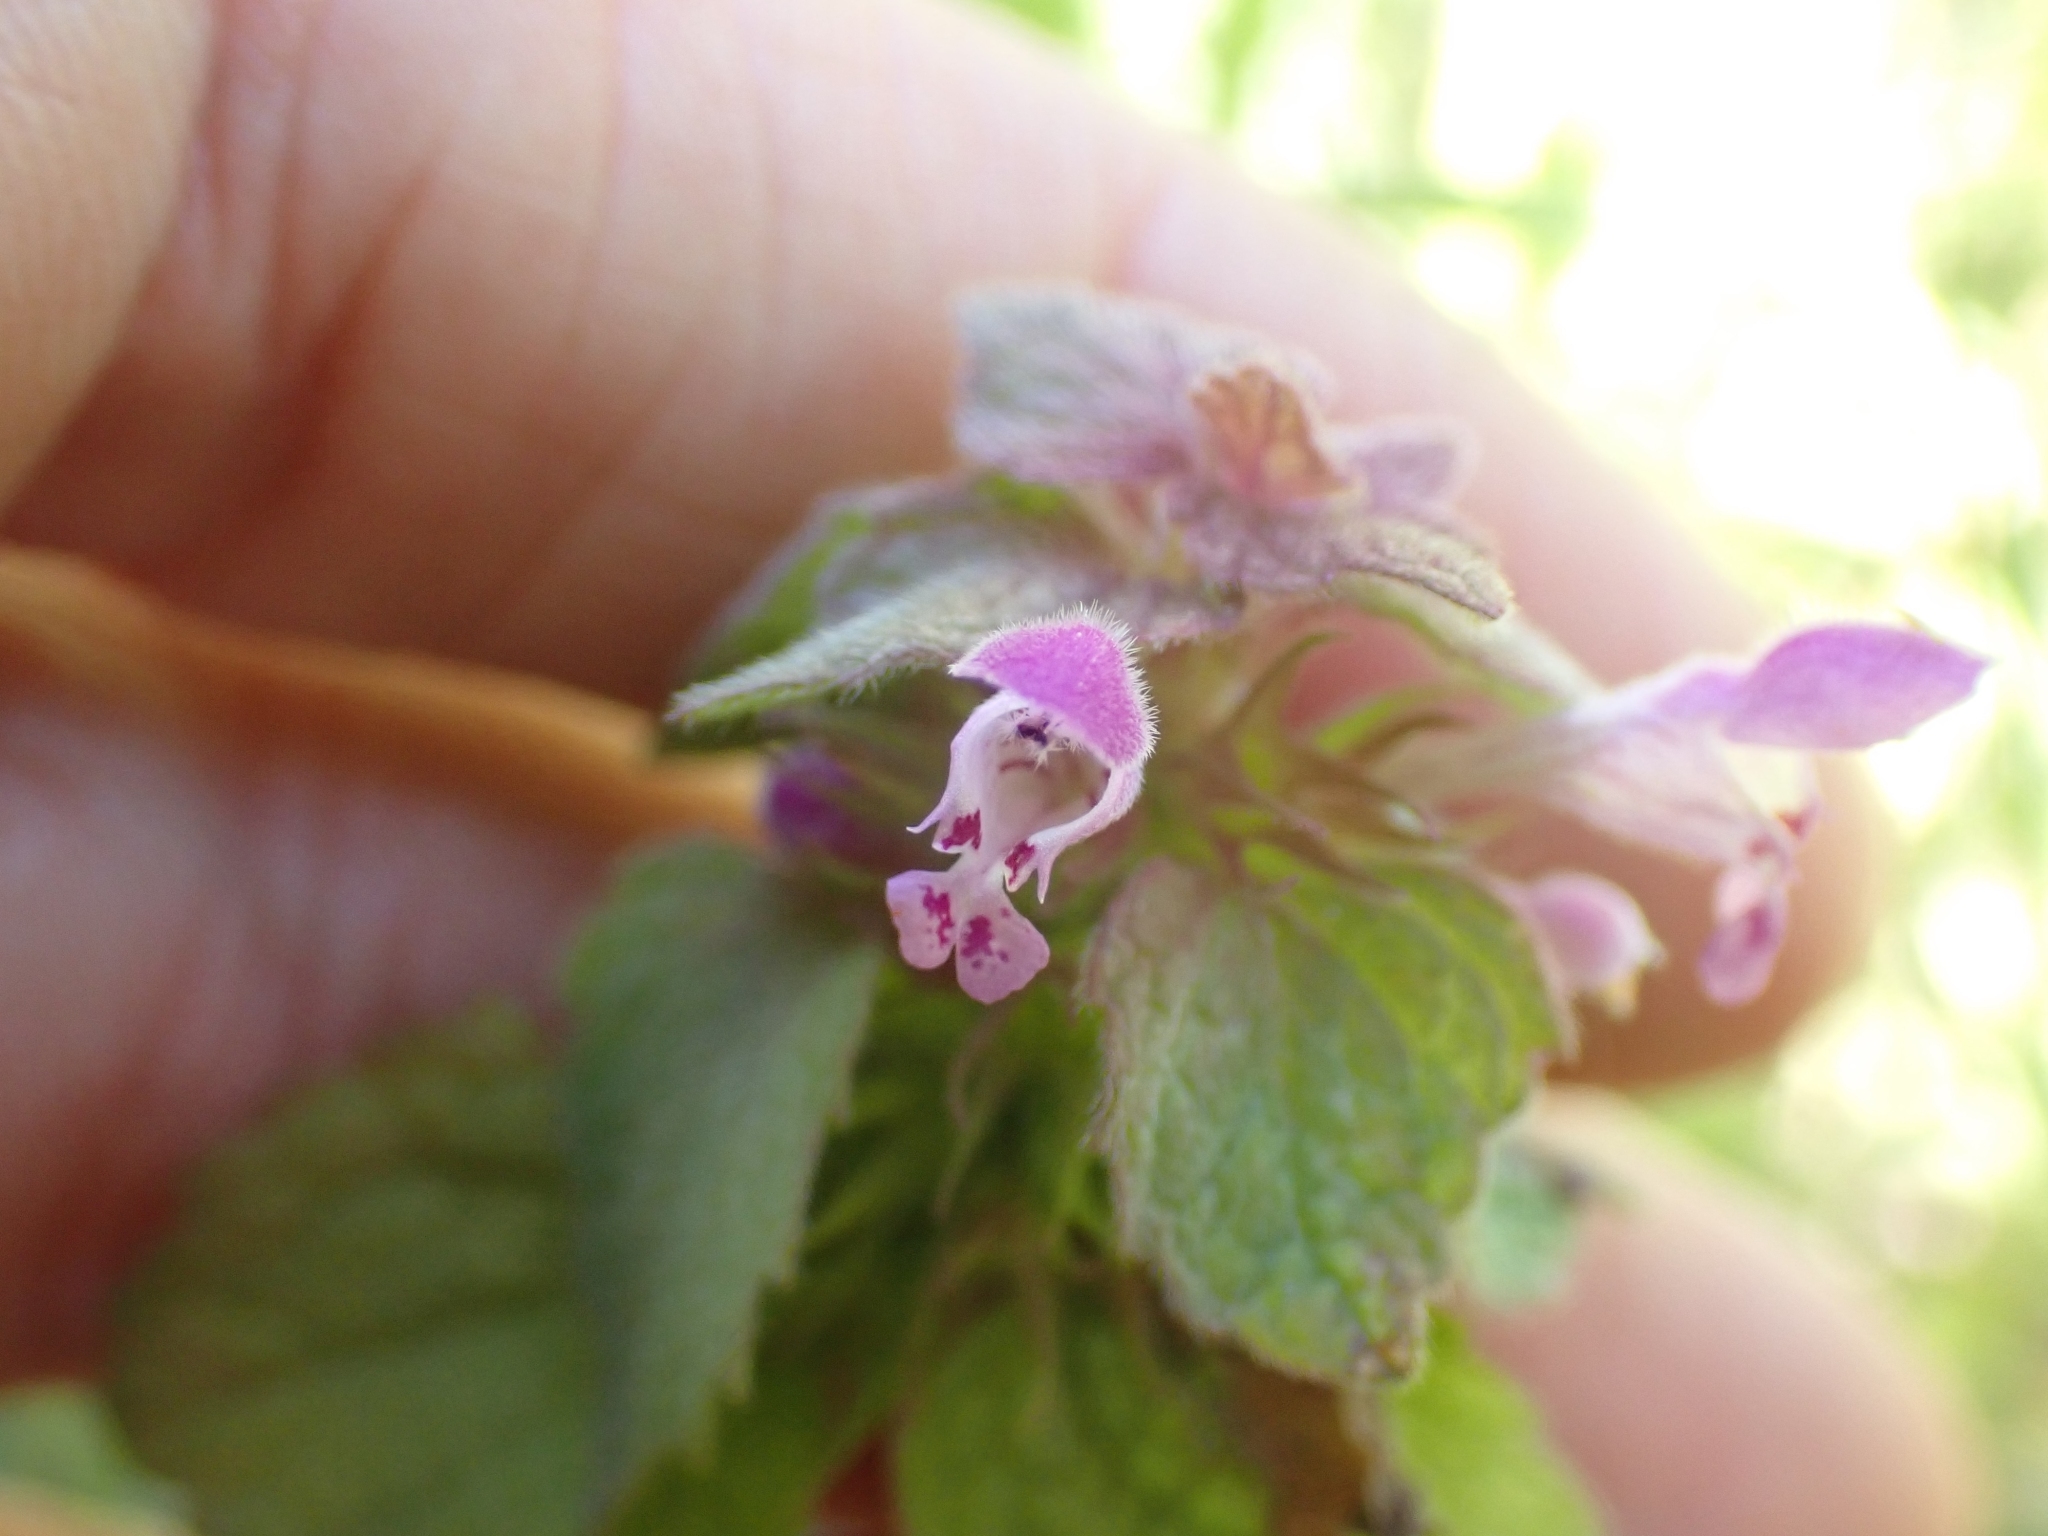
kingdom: Plantae
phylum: Tracheophyta
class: Magnoliopsida
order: Lamiales
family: Lamiaceae
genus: Lamium
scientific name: Lamium purpureum
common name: Red dead-nettle
